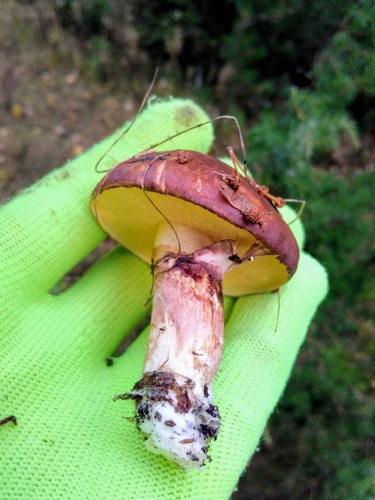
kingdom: Fungi
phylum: Basidiomycota
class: Agaricomycetes
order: Boletales
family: Suillaceae
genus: Suillus
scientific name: Suillus luteus
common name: Slippery jack
